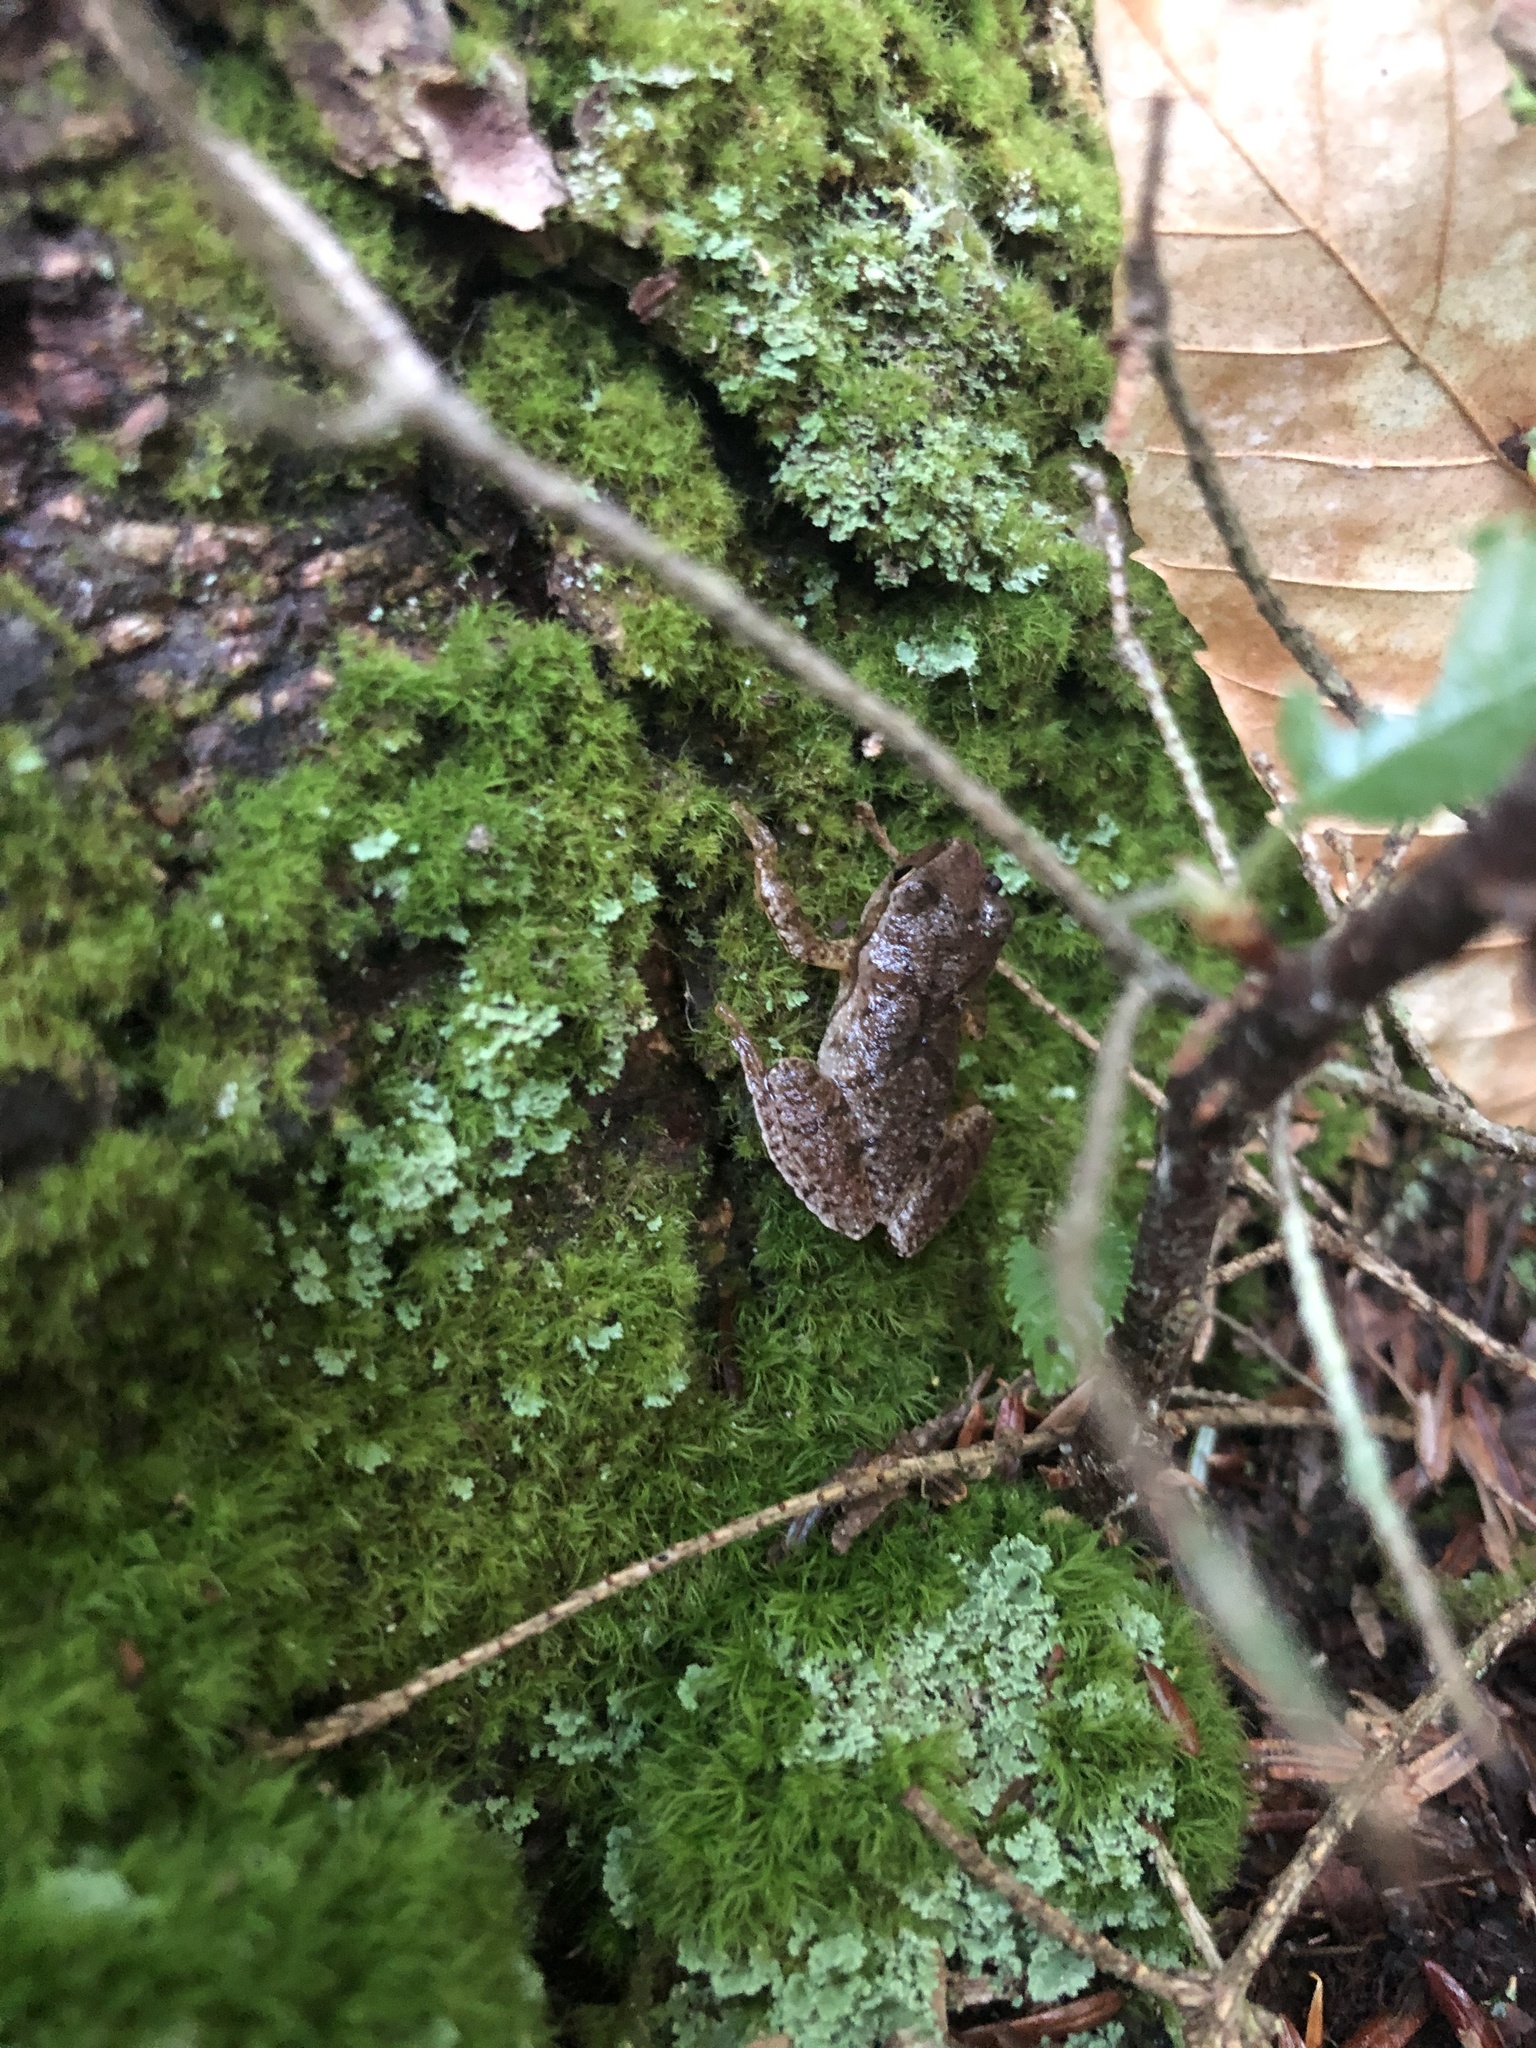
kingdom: Animalia
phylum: Chordata
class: Amphibia
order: Anura
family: Hylidae
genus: Pseudacris
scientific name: Pseudacris crucifer
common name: Spring peeper
